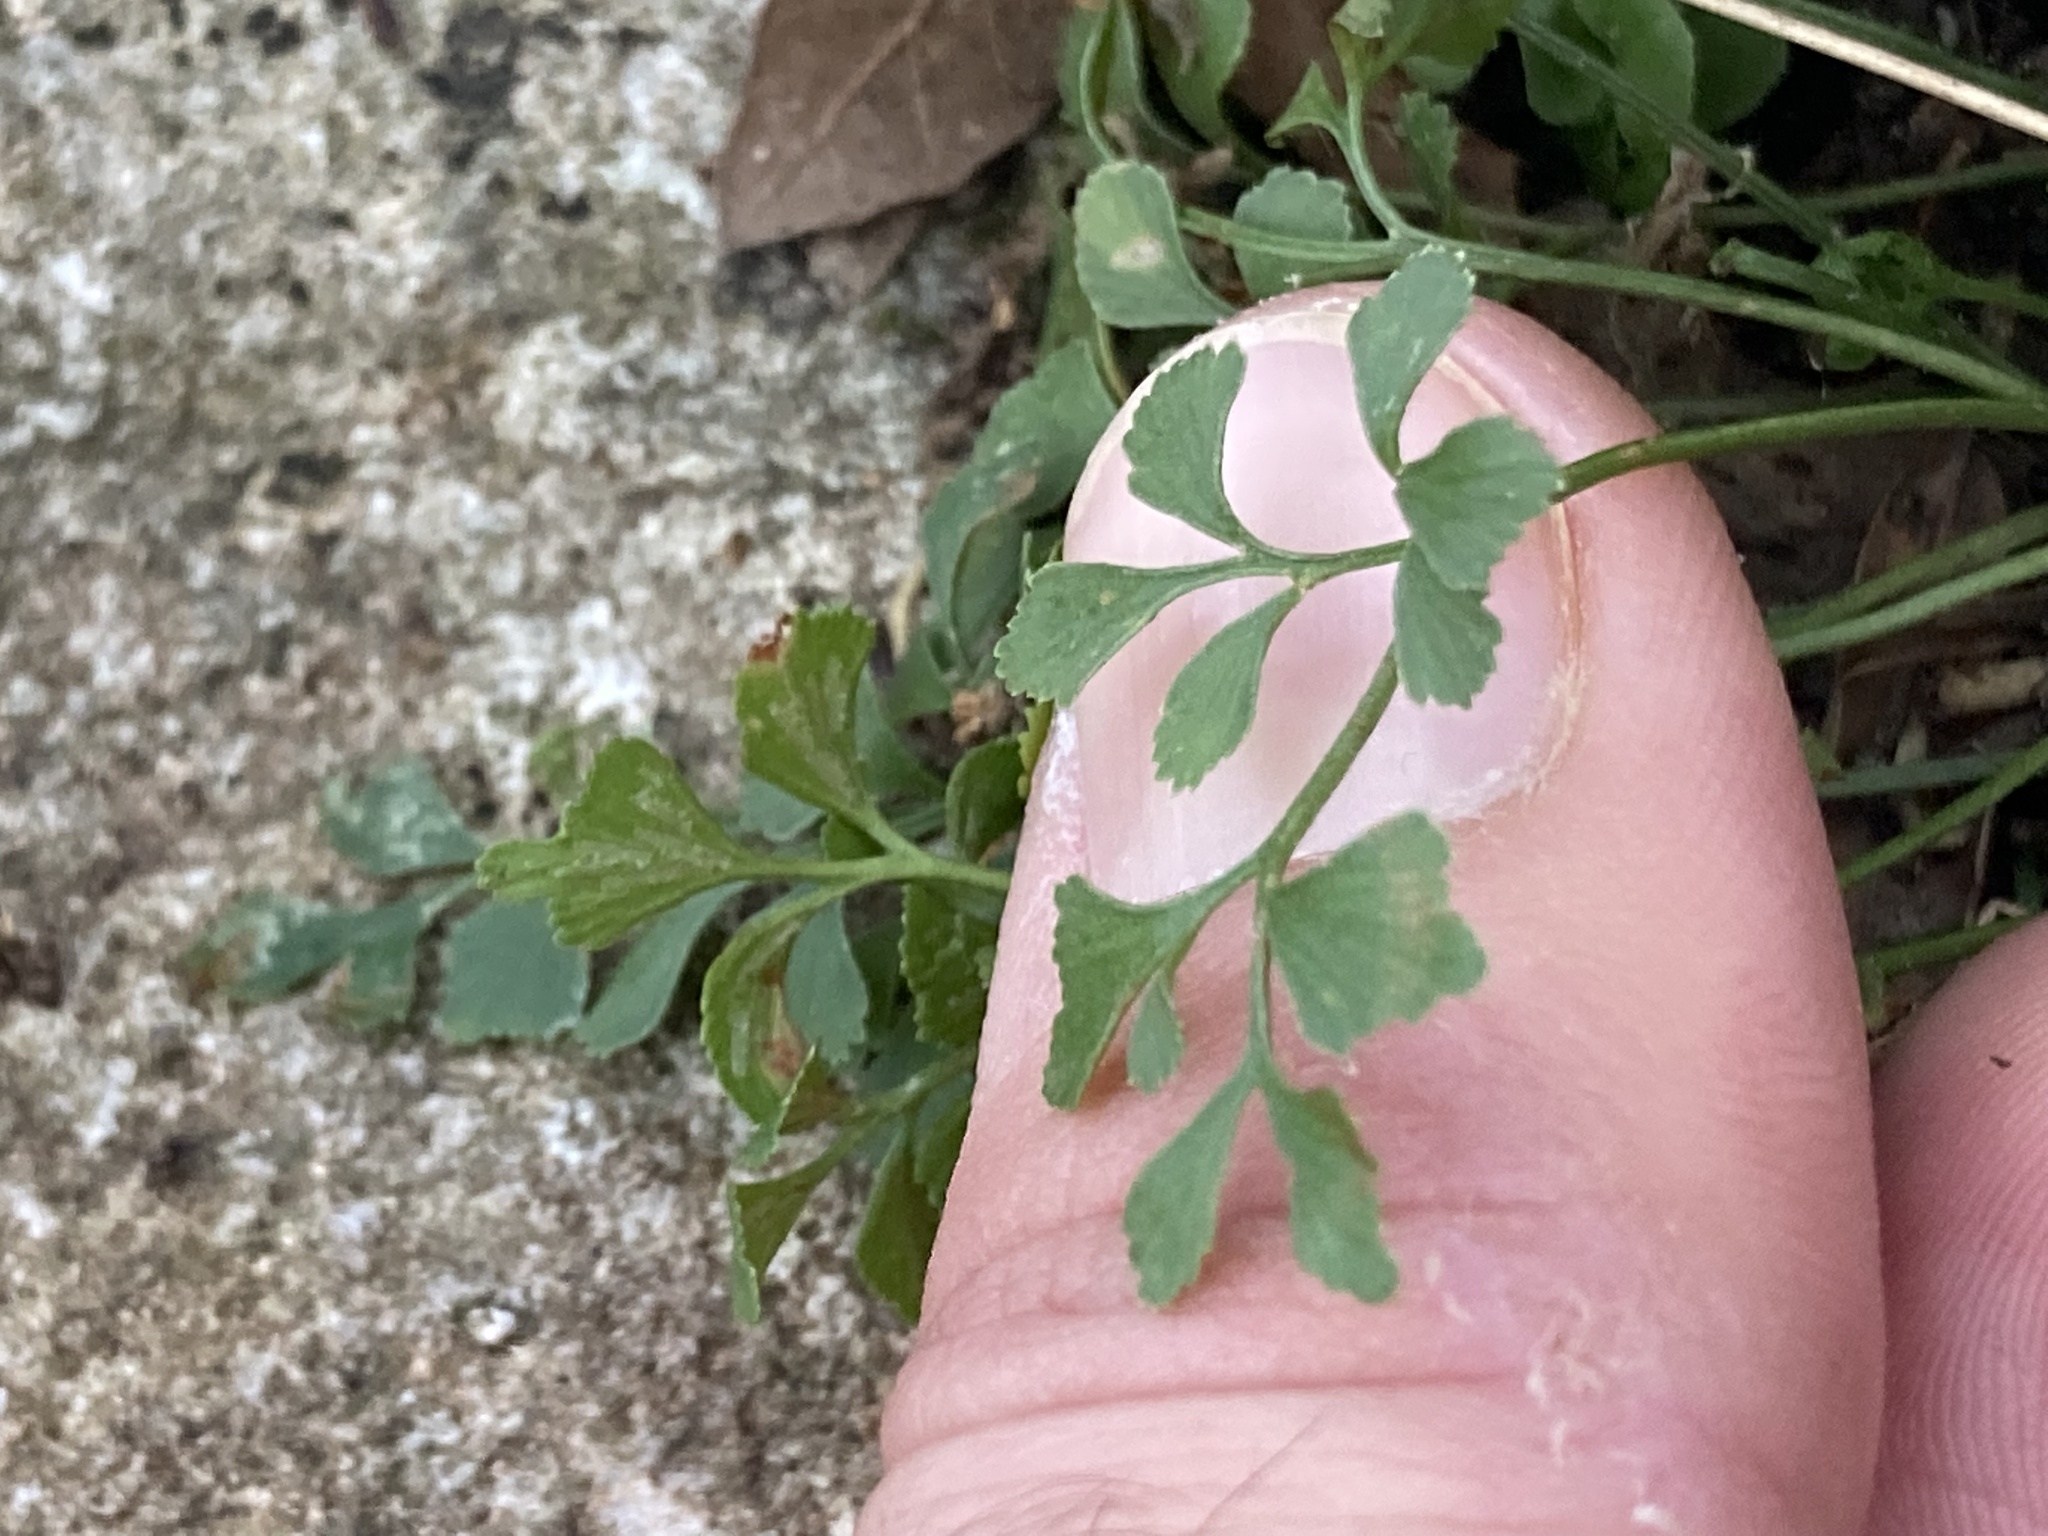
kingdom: Plantae
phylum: Tracheophyta
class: Polypodiopsida
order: Polypodiales
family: Aspleniaceae
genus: Asplenium
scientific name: Asplenium ruta-muraria
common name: Wall-rue
